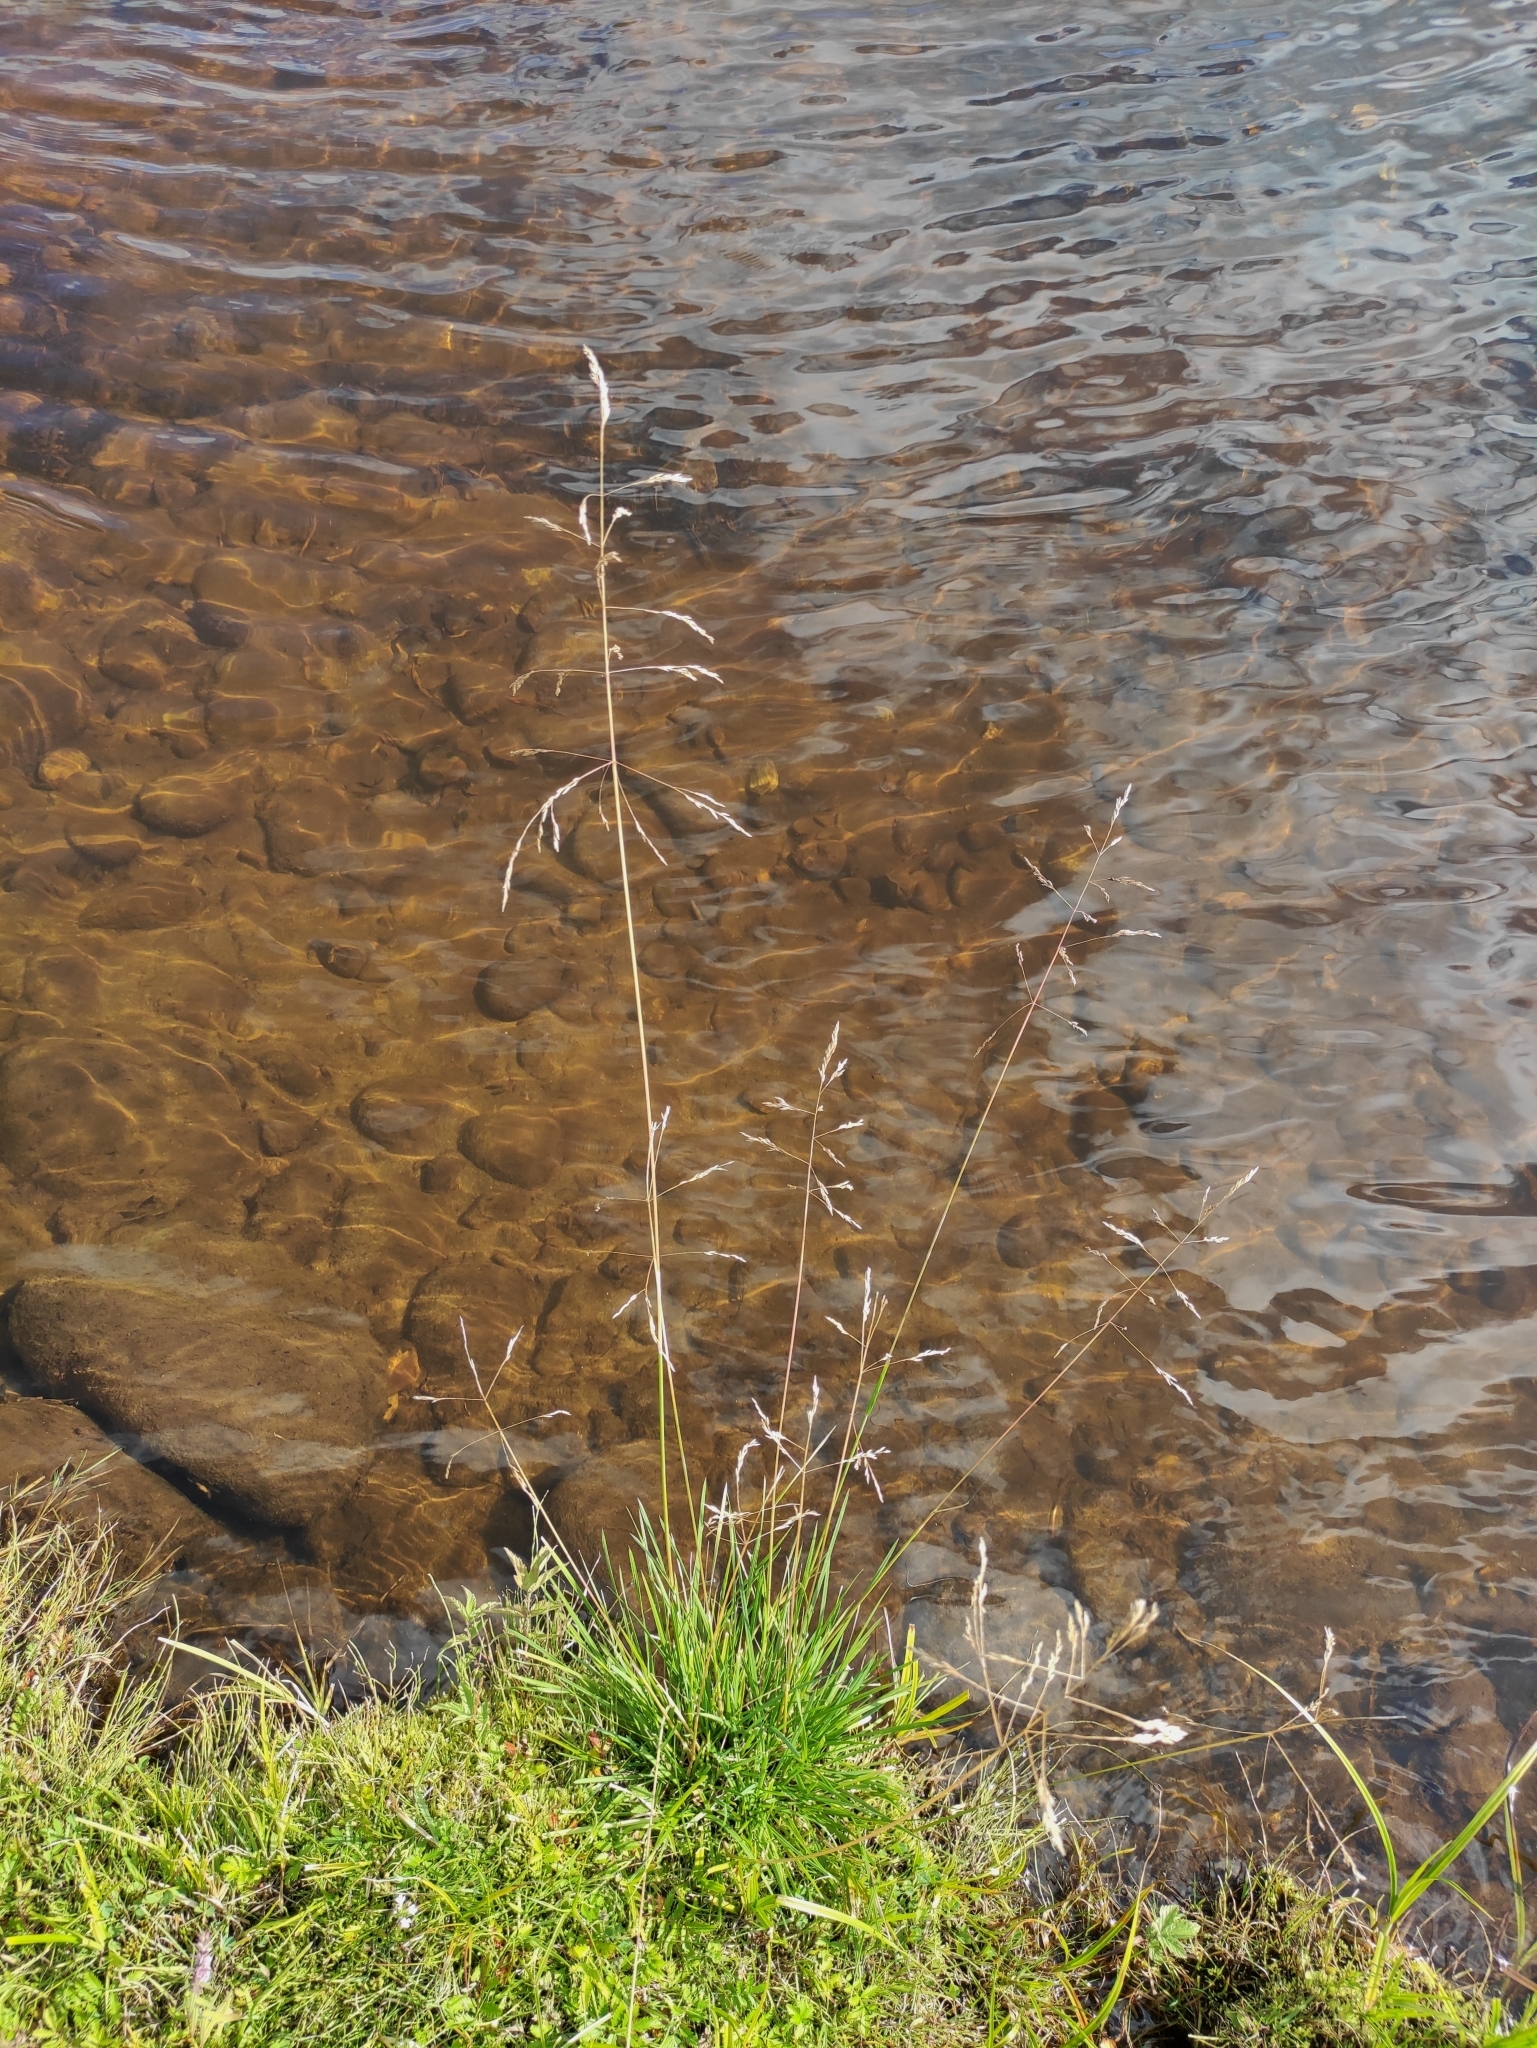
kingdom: Plantae
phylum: Tracheophyta
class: Liliopsida
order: Poales
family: Poaceae
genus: Deschampsia
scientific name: Deschampsia cespitosa
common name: Tufted hair-grass
